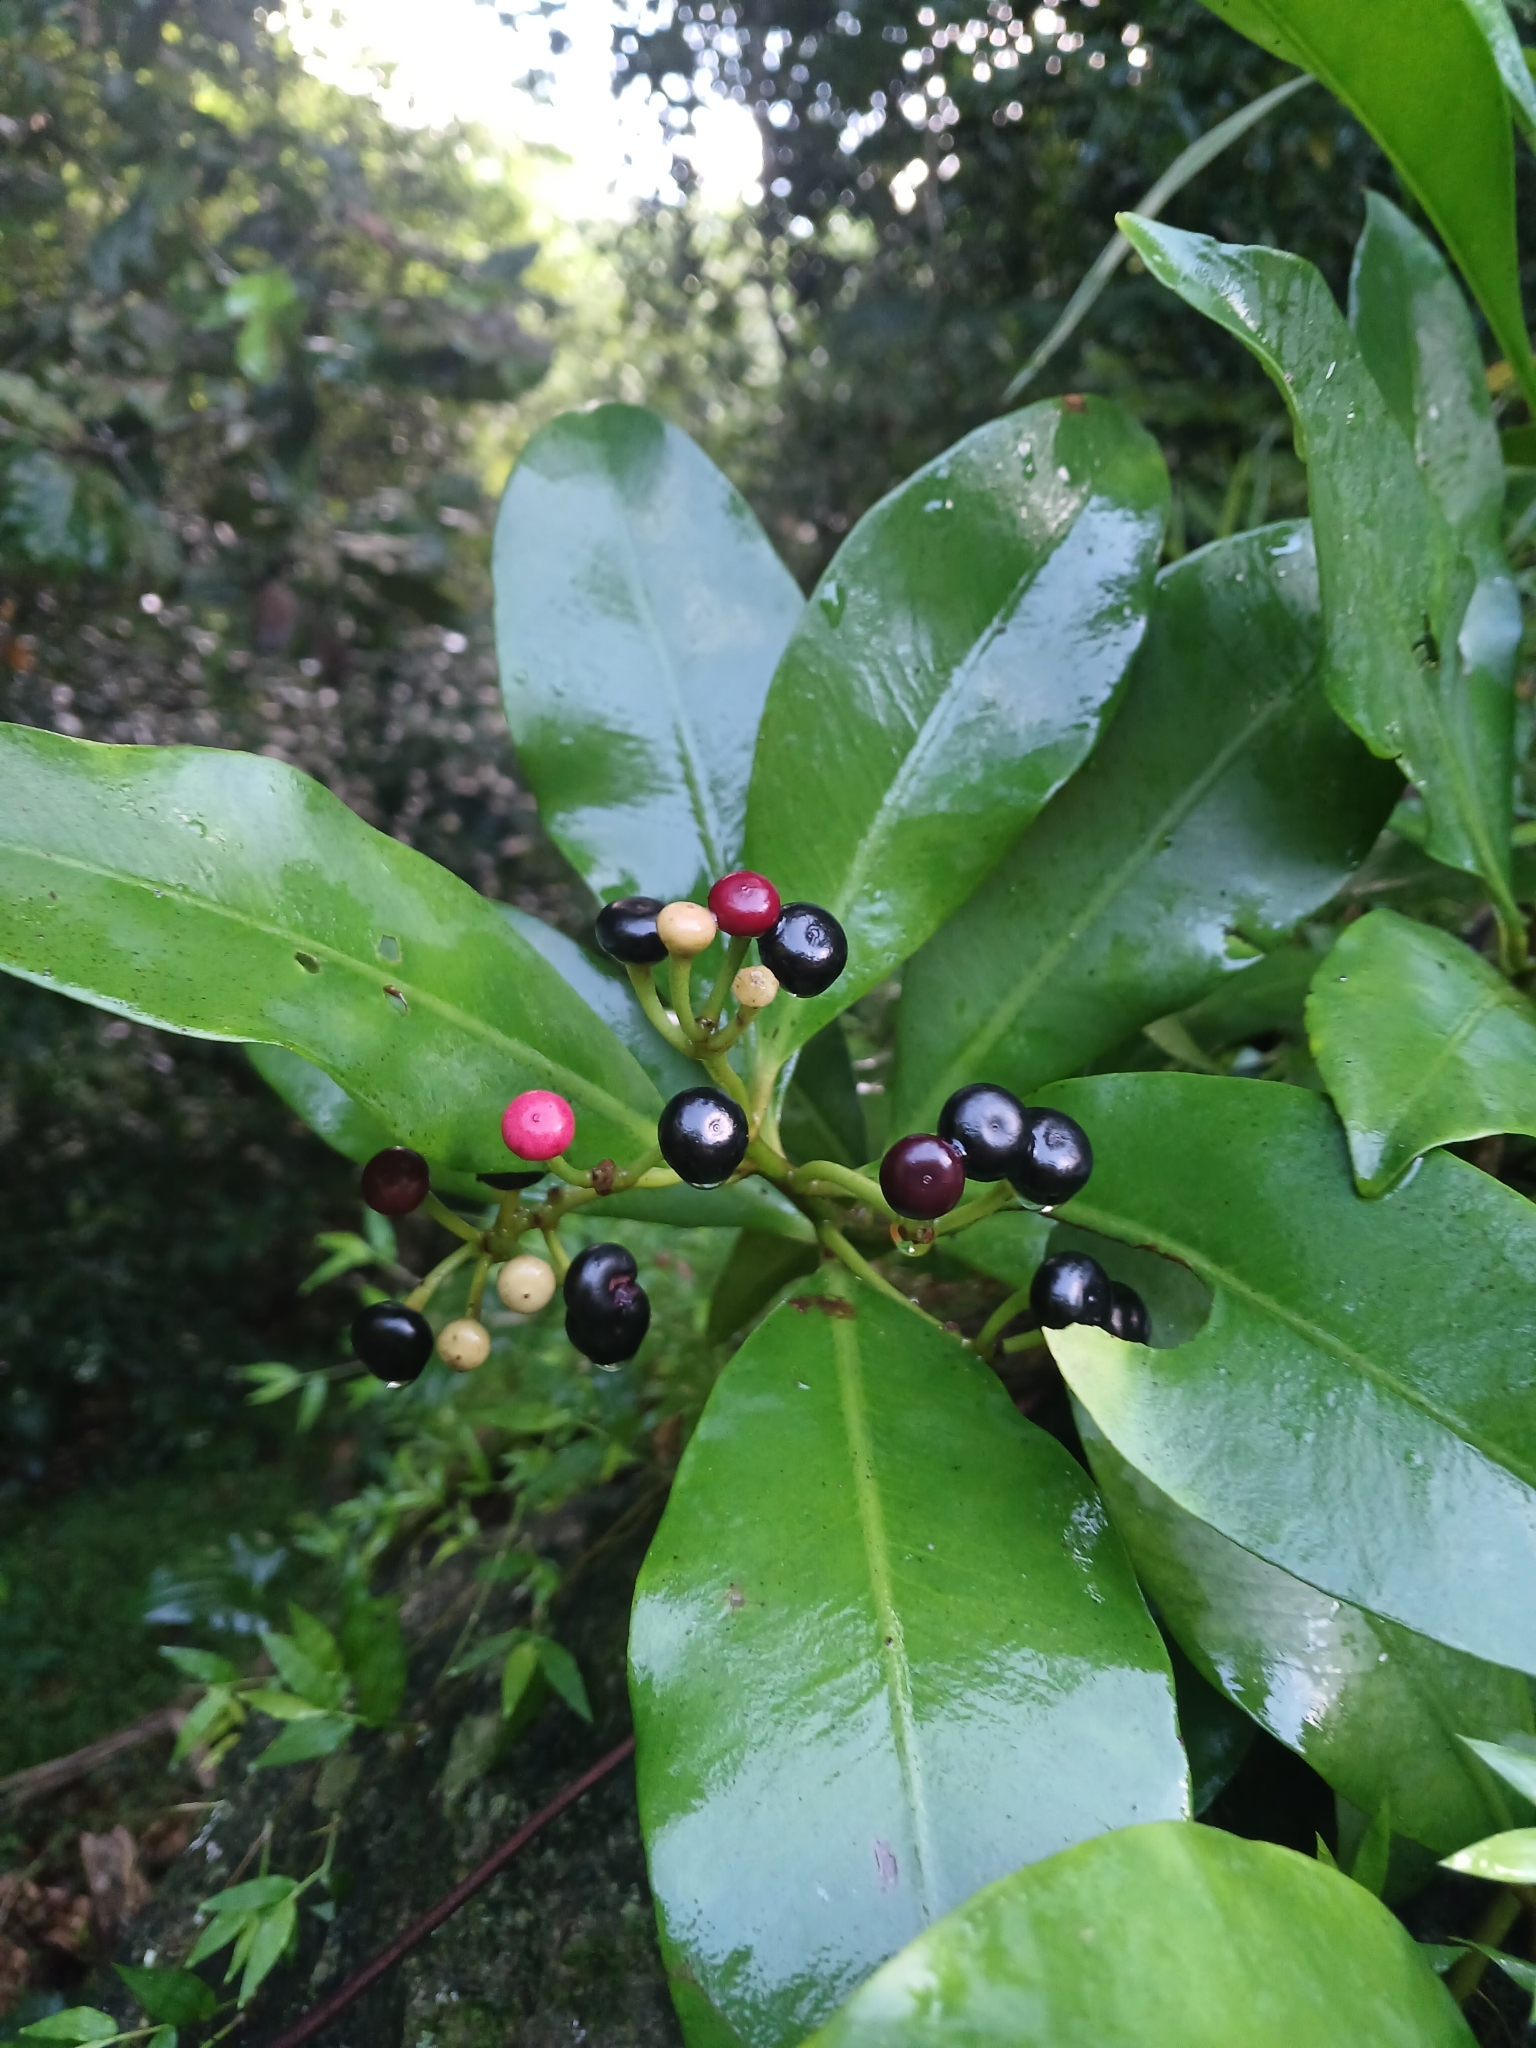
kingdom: Plantae
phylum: Tracheophyta
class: Magnoliopsida
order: Ericales
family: Primulaceae
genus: Ardisia
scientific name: Ardisia elliptica
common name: Shoebutton
